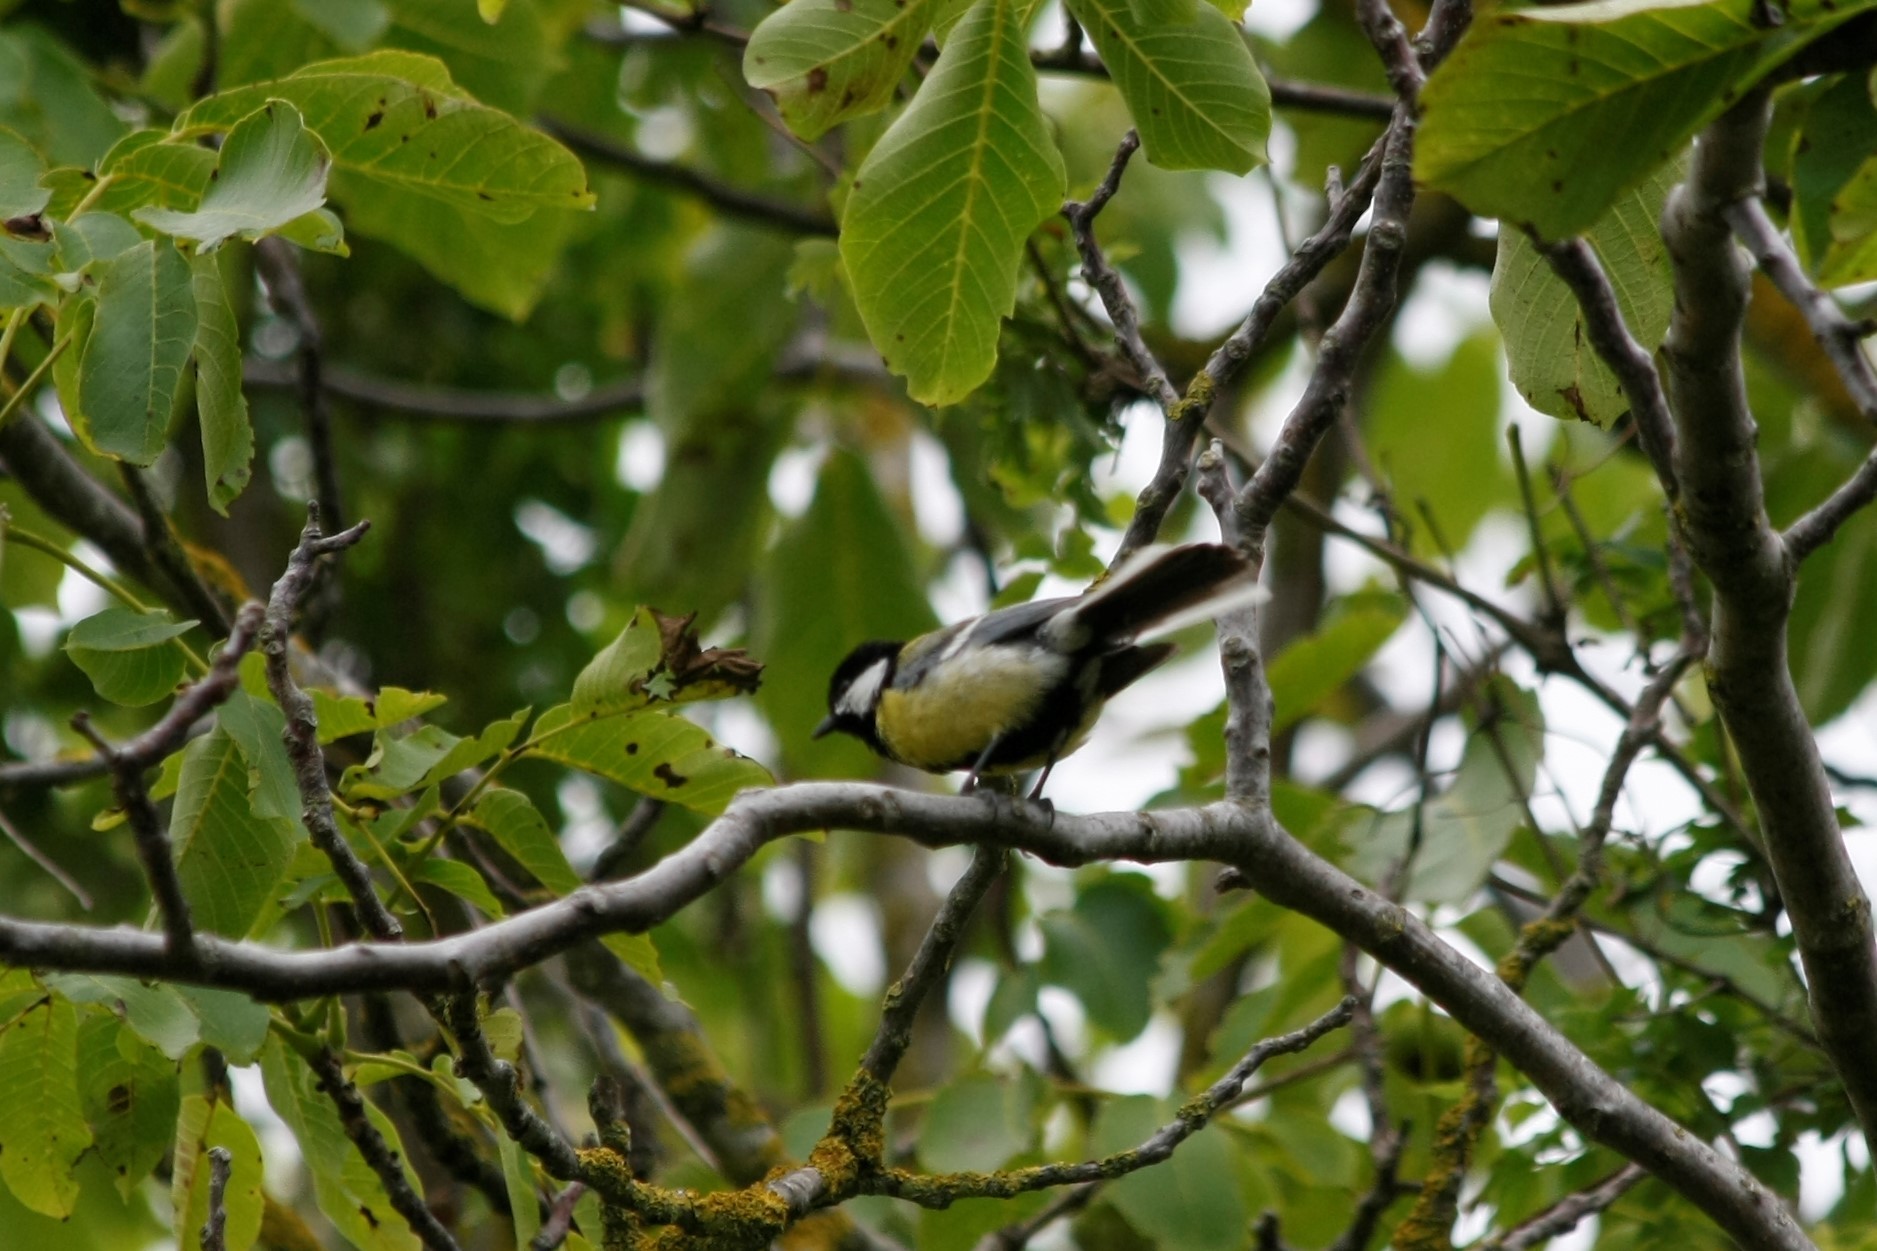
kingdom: Animalia
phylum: Chordata
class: Aves
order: Passeriformes
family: Paridae
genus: Parus
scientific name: Parus major
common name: Great tit
